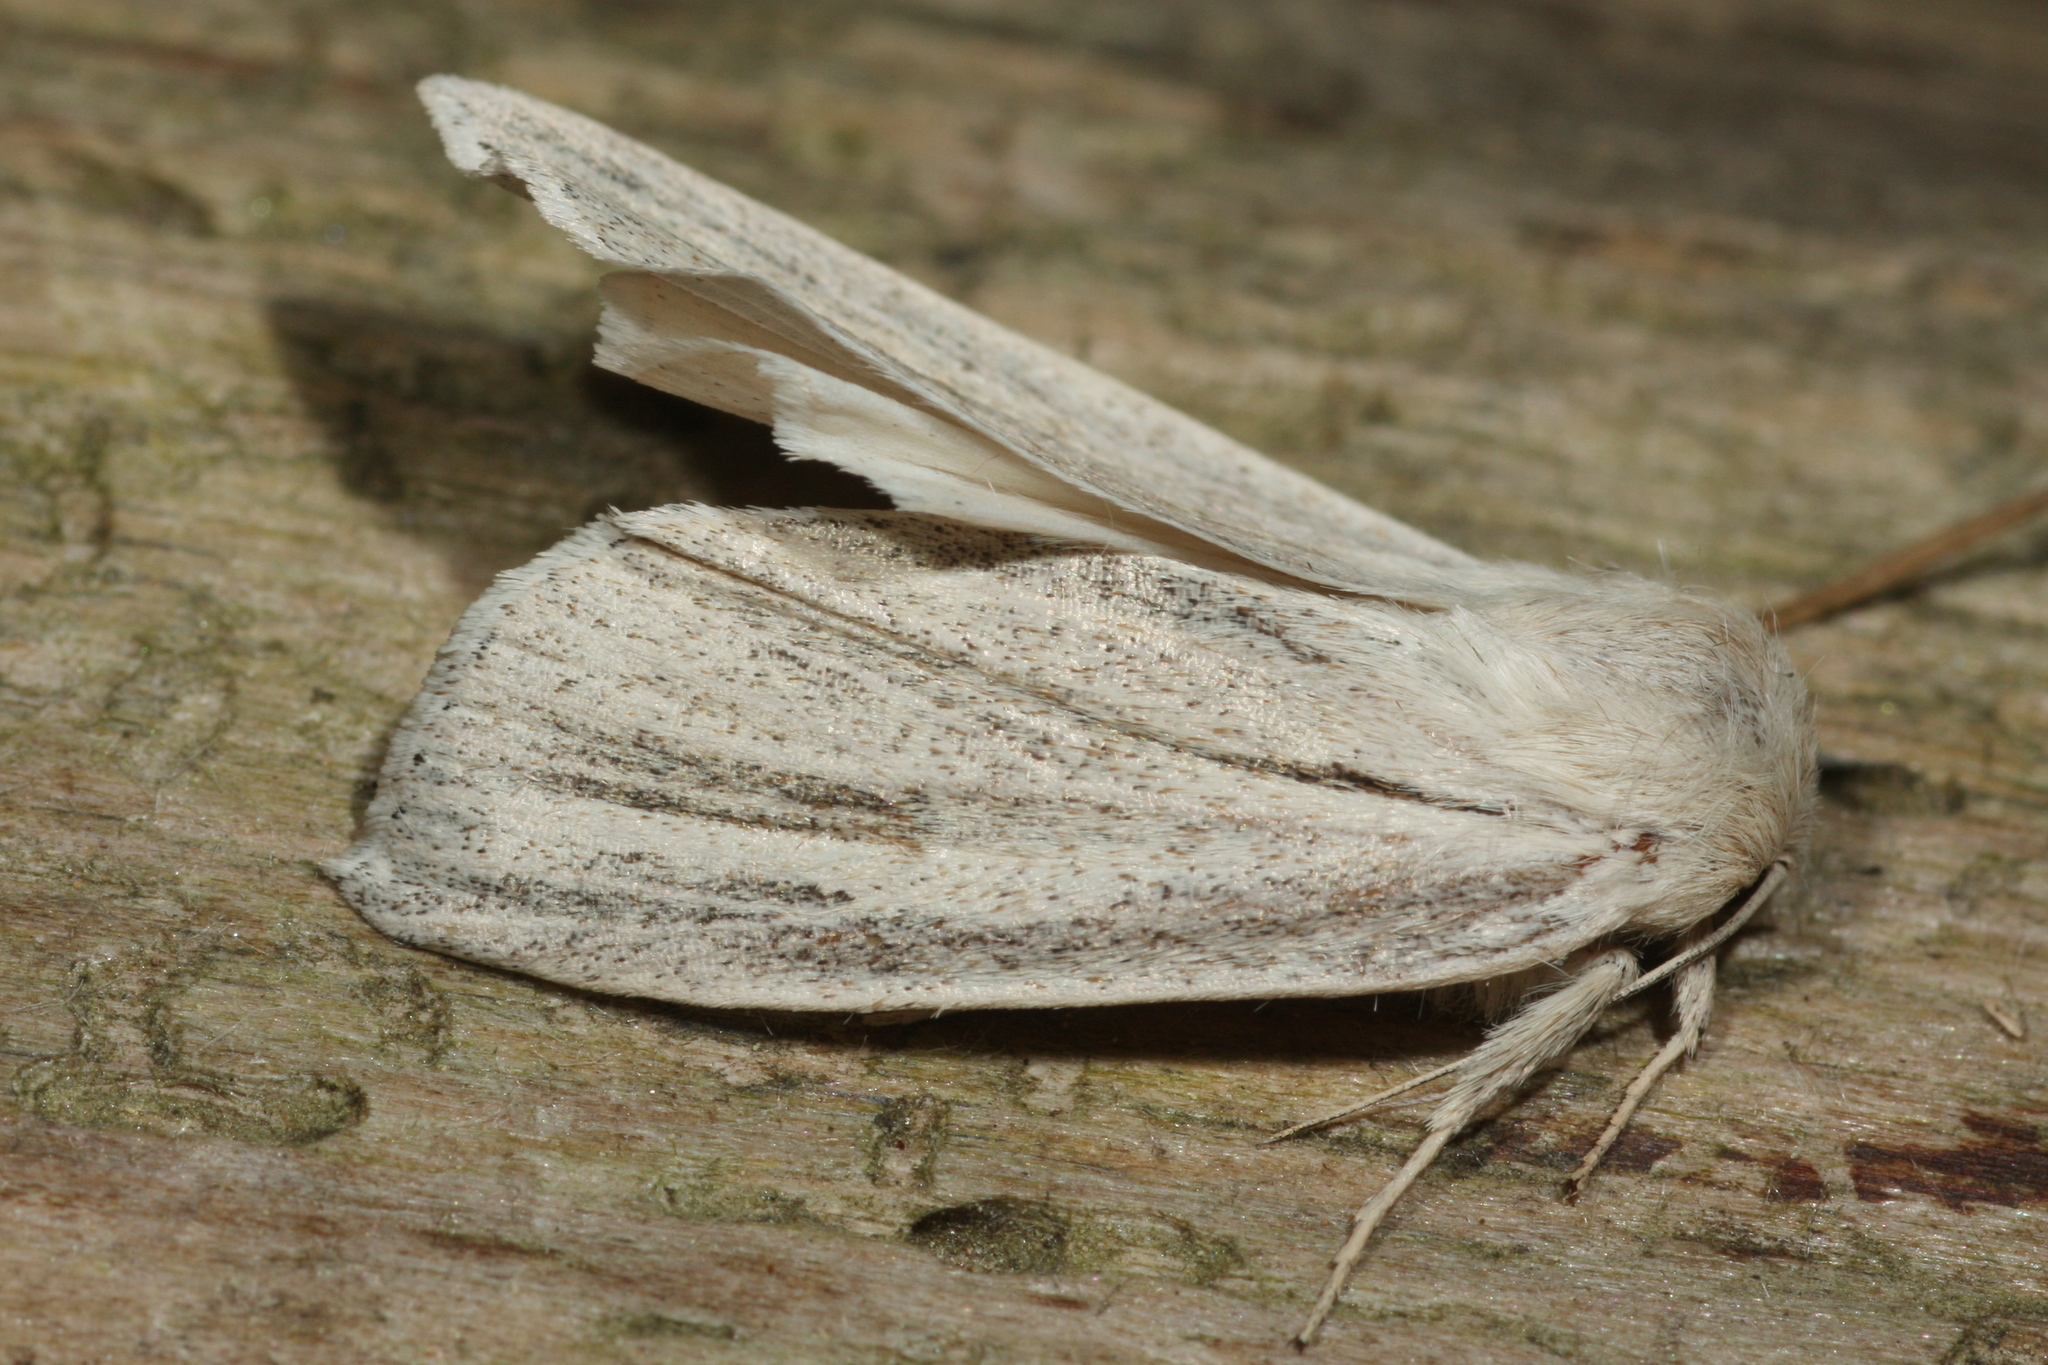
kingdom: Animalia
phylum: Arthropoda
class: Insecta
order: Lepidoptera
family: Noctuidae
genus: Simyra
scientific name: Simyra albovenosa
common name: Reed dagger
